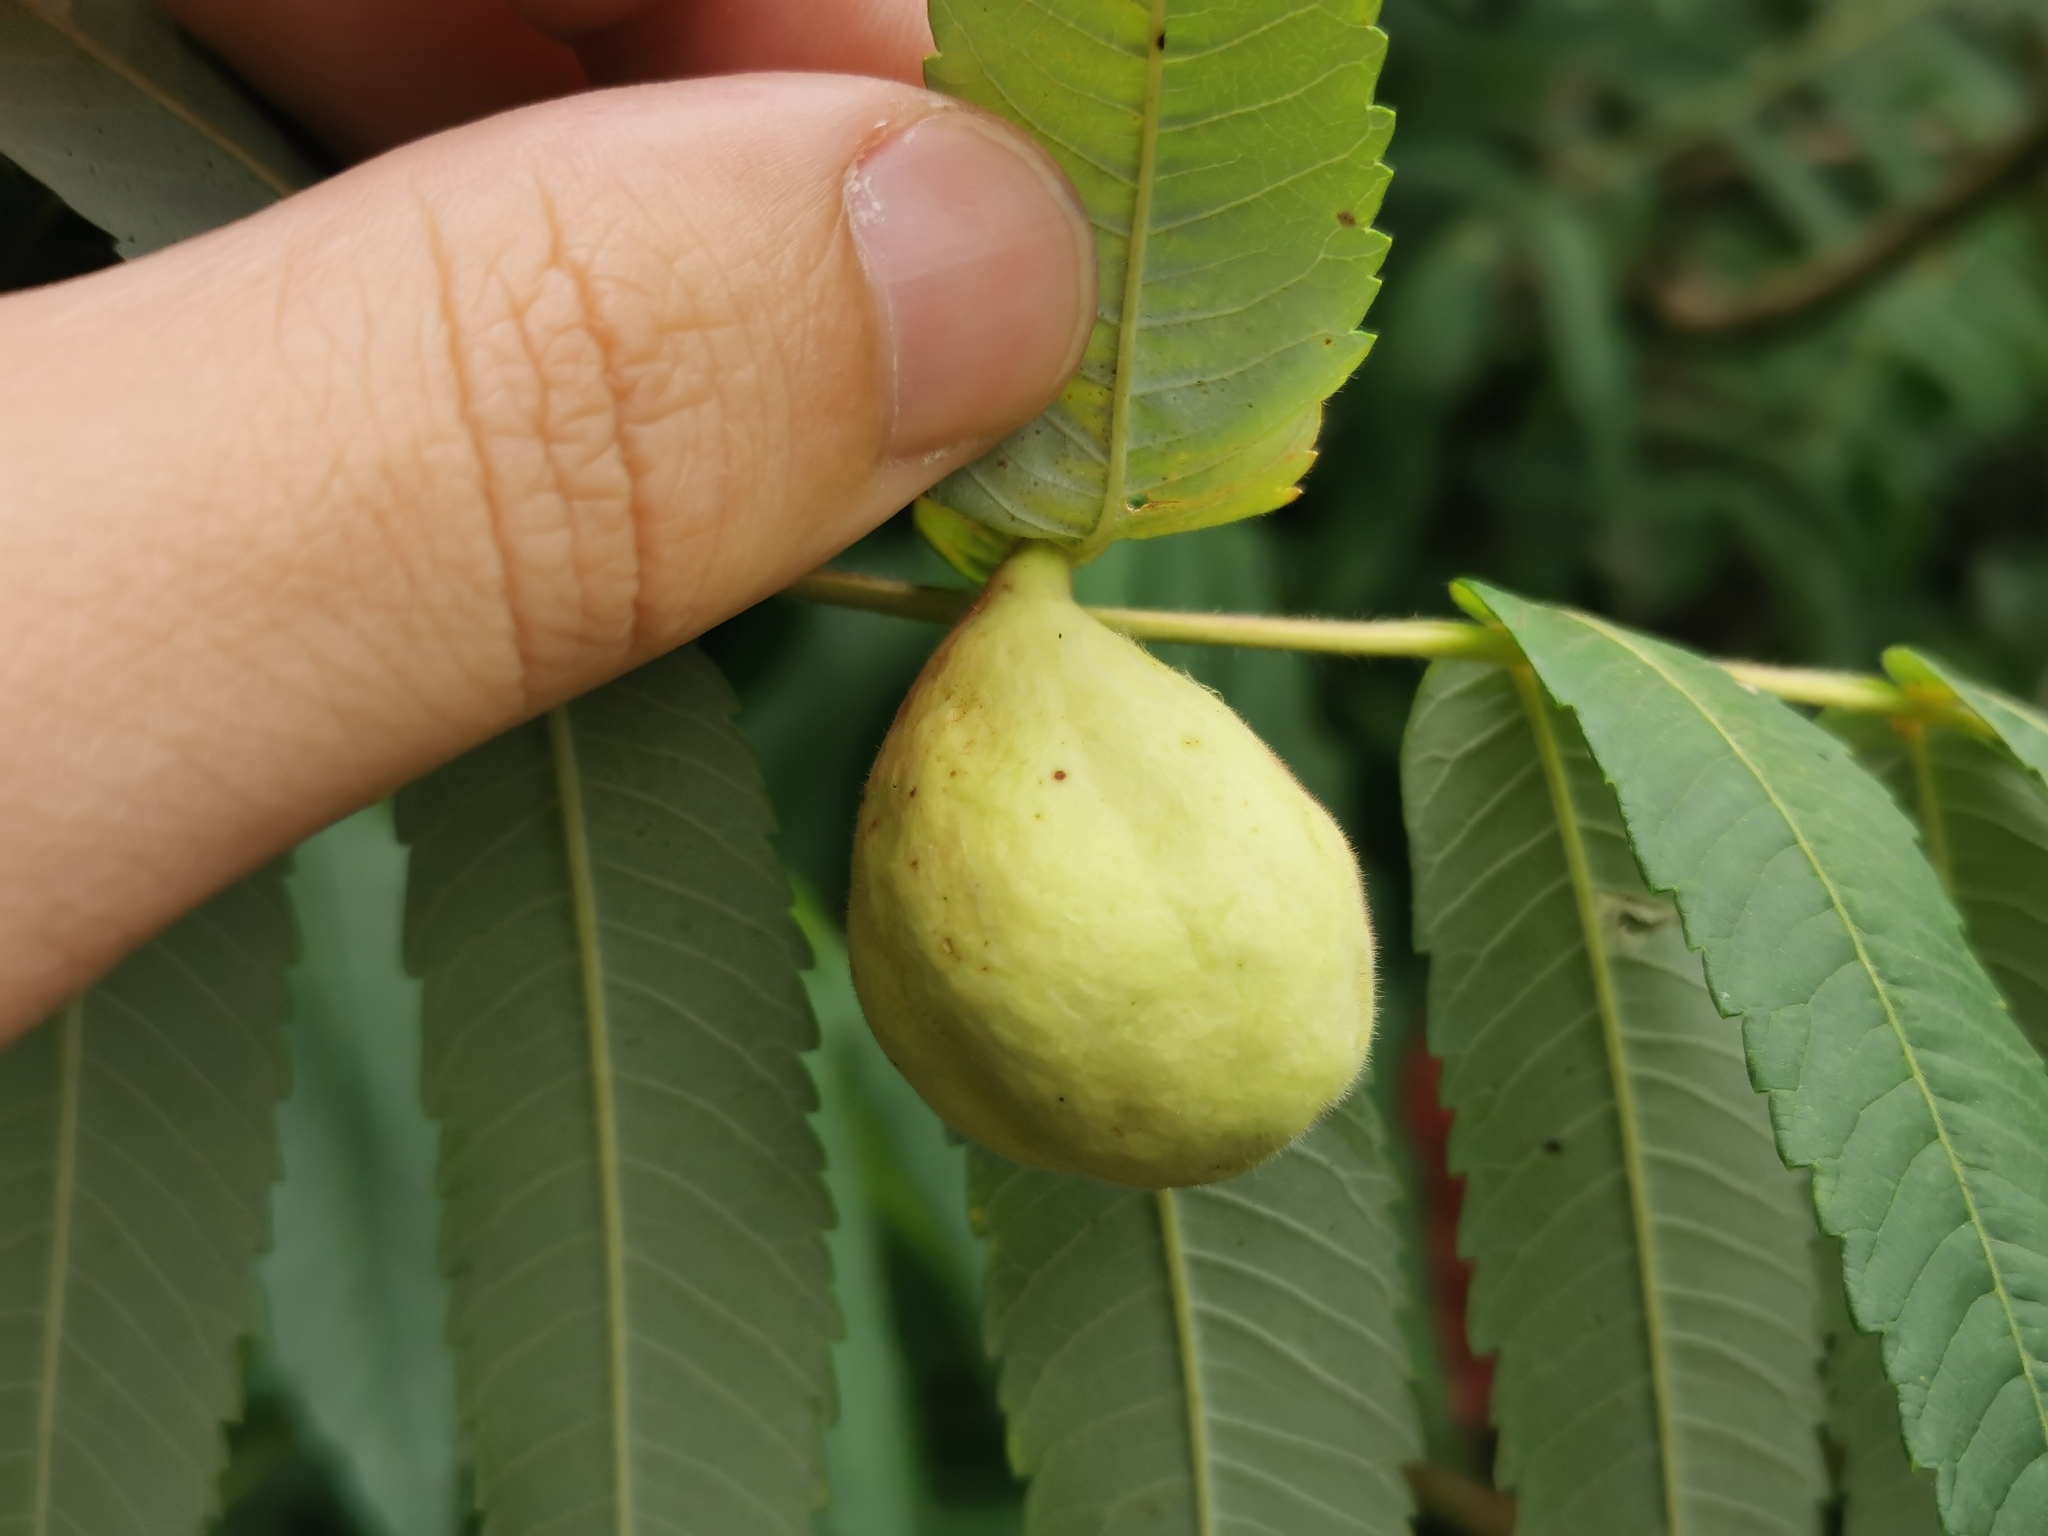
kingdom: Animalia
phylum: Arthropoda
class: Insecta
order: Hemiptera
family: Aphididae
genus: Melaphis
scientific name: Melaphis rhois
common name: Sumac gall aphid
